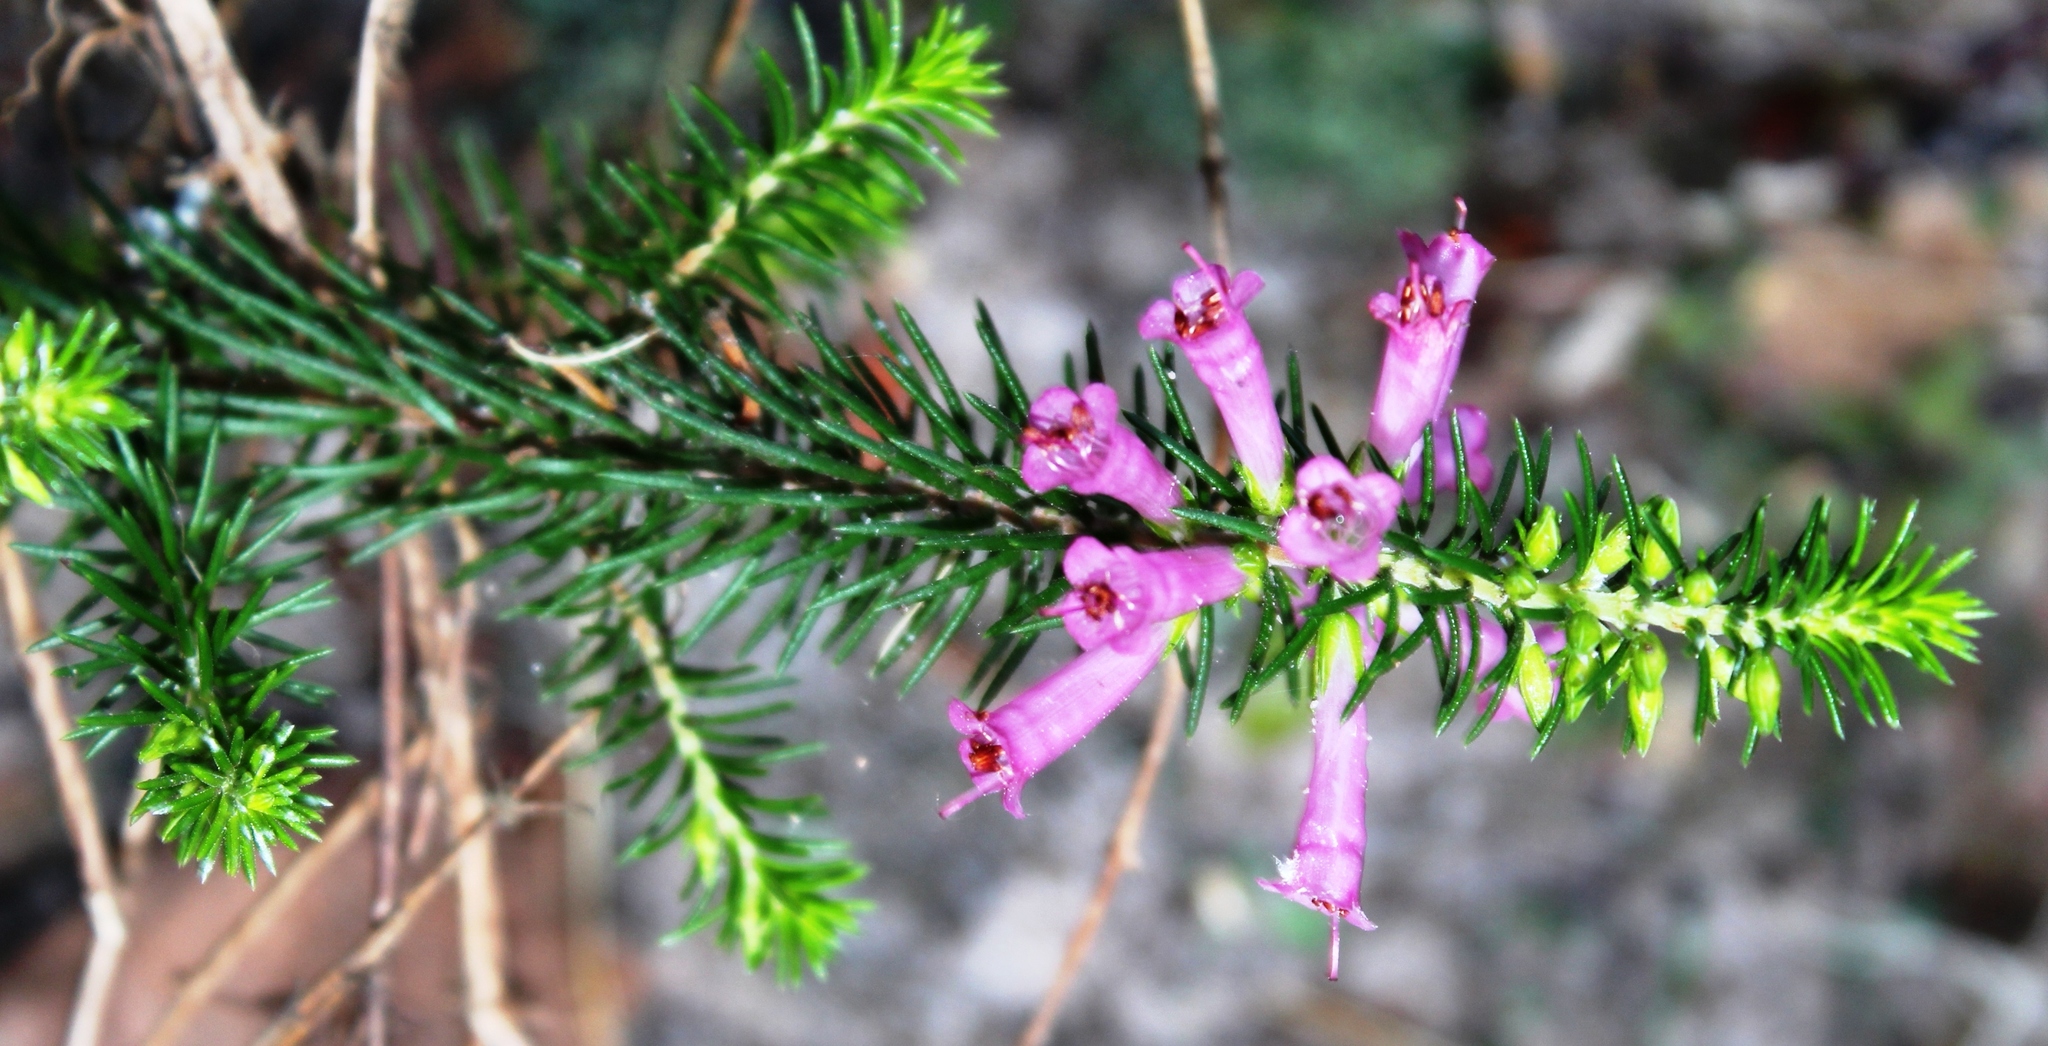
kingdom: Plantae
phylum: Tracheophyta
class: Magnoliopsida
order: Ericales
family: Ericaceae
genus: Erica
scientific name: Erica abietina
